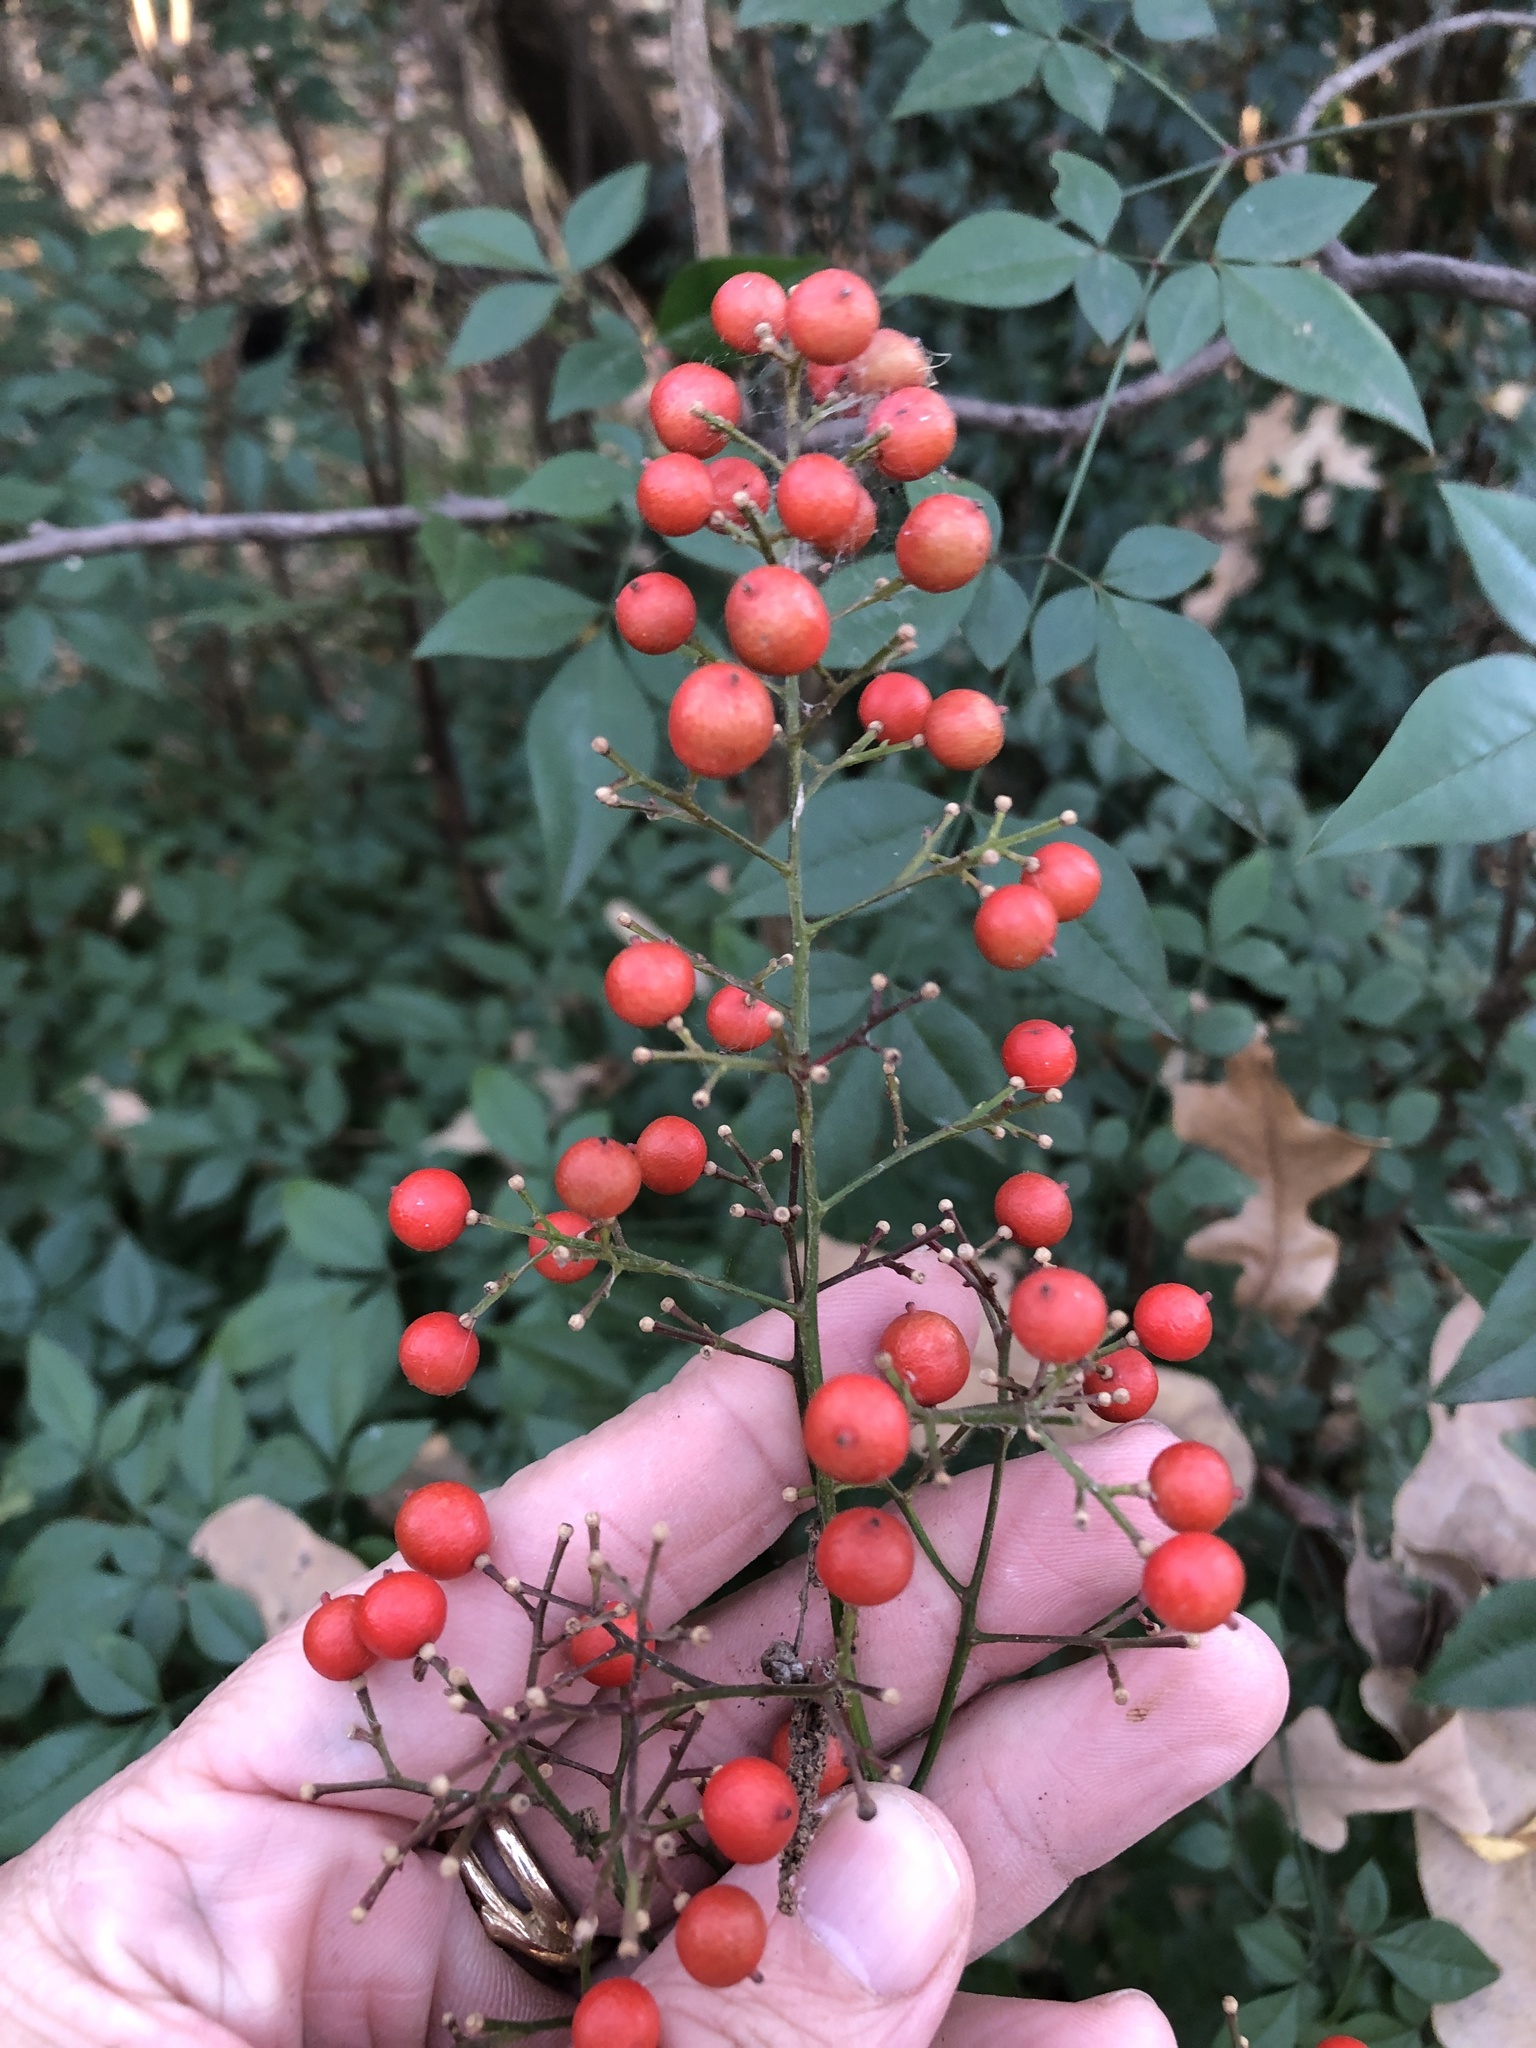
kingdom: Plantae
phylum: Tracheophyta
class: Magnoliopsida
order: Ranunculales
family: Berberidaceae
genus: Nandina
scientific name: Nandina domestica
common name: Sacred bamboo
